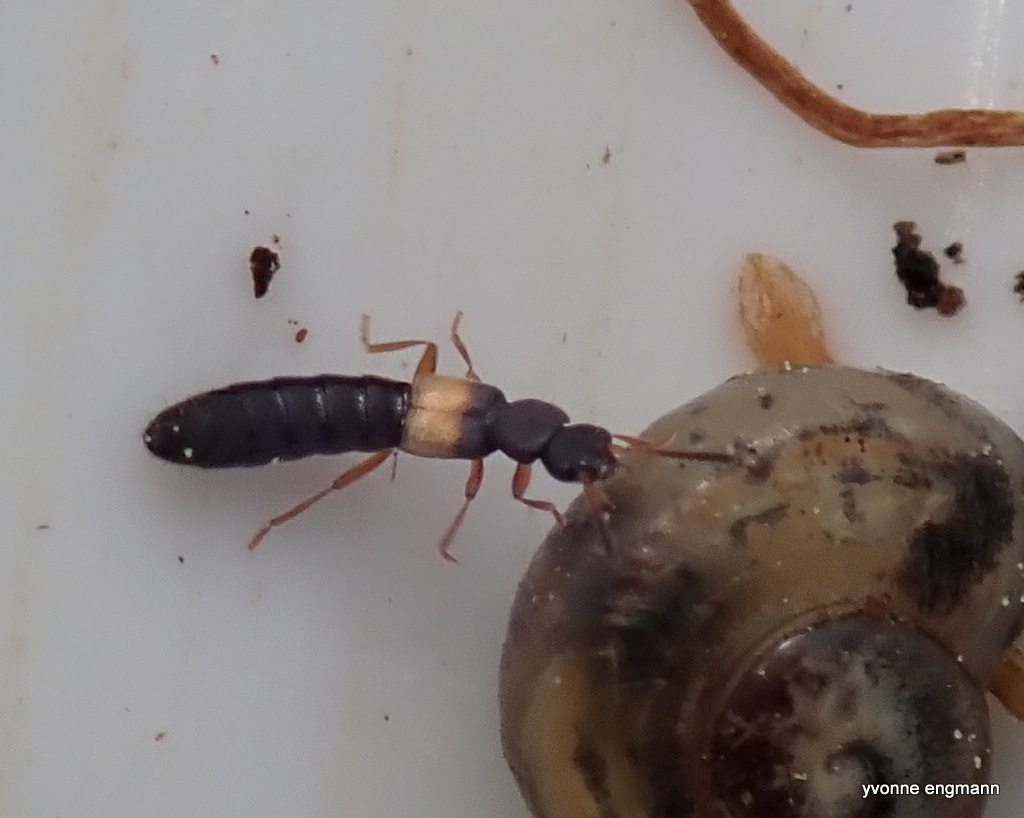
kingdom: Animalia
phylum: Arthropoda
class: Insecta
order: Coleoptera
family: Staphylinidae
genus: Hygronoma
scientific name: Hygronoma dimidiata
